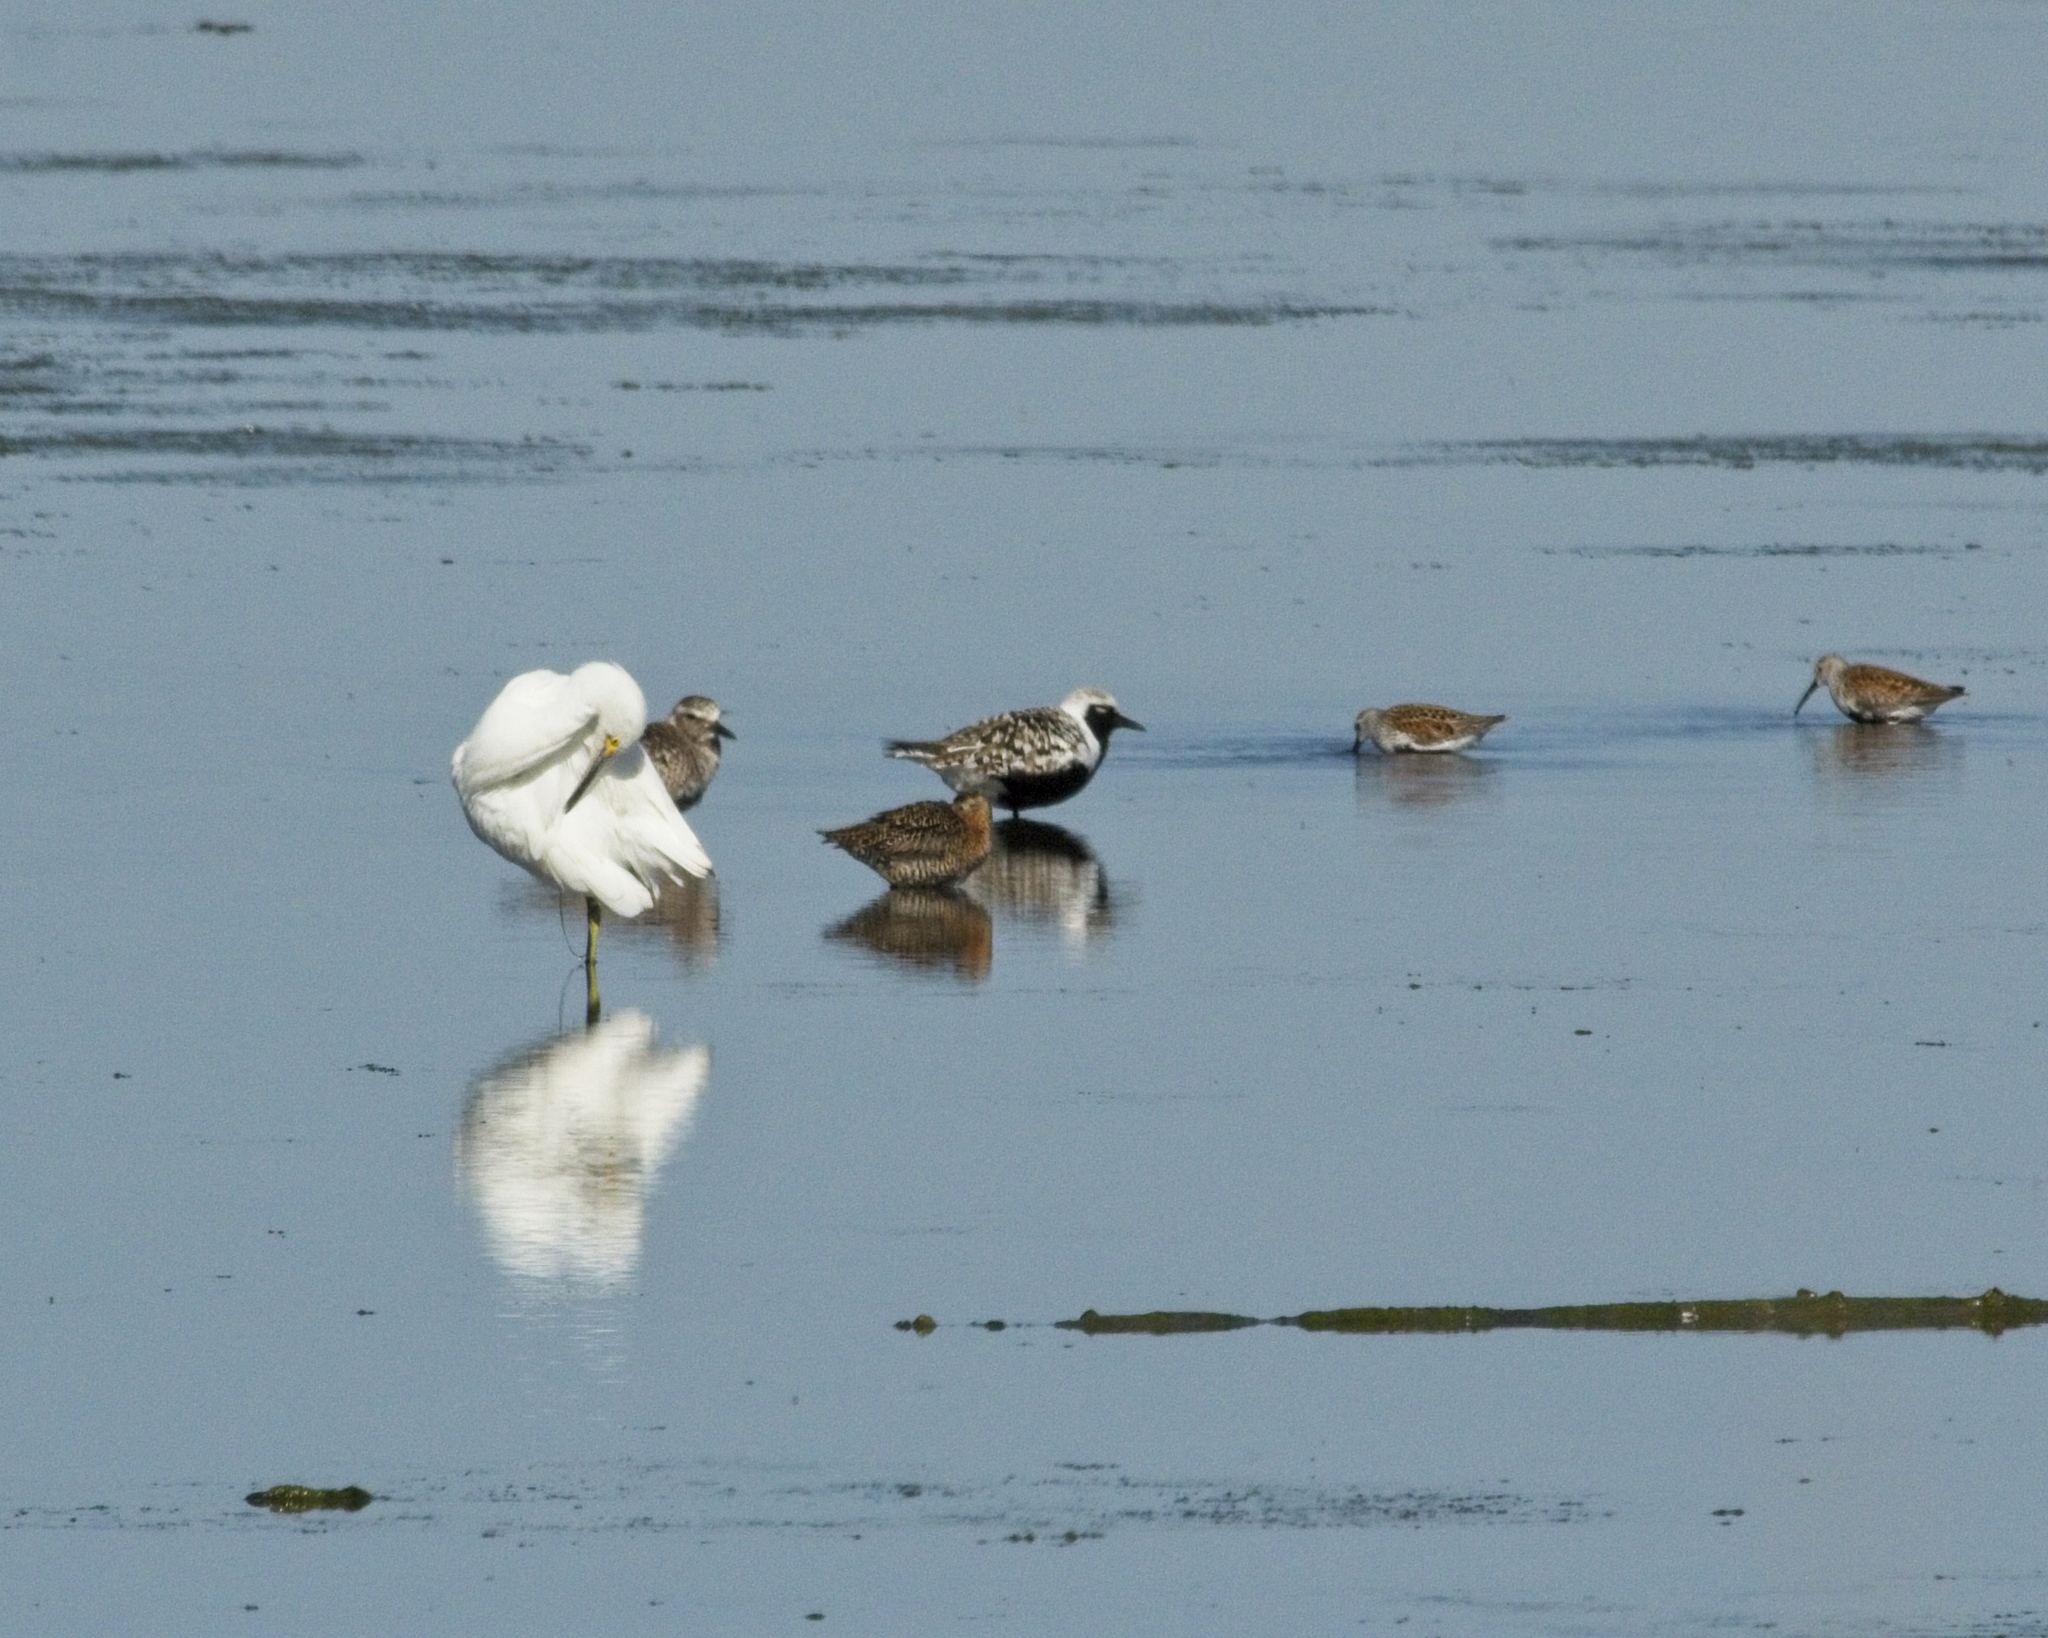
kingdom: Animalia
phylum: Chordata
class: Aves
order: Charadriiformes
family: Scolopacidae
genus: Calidris
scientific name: Calidris alpina
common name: Dunlin
